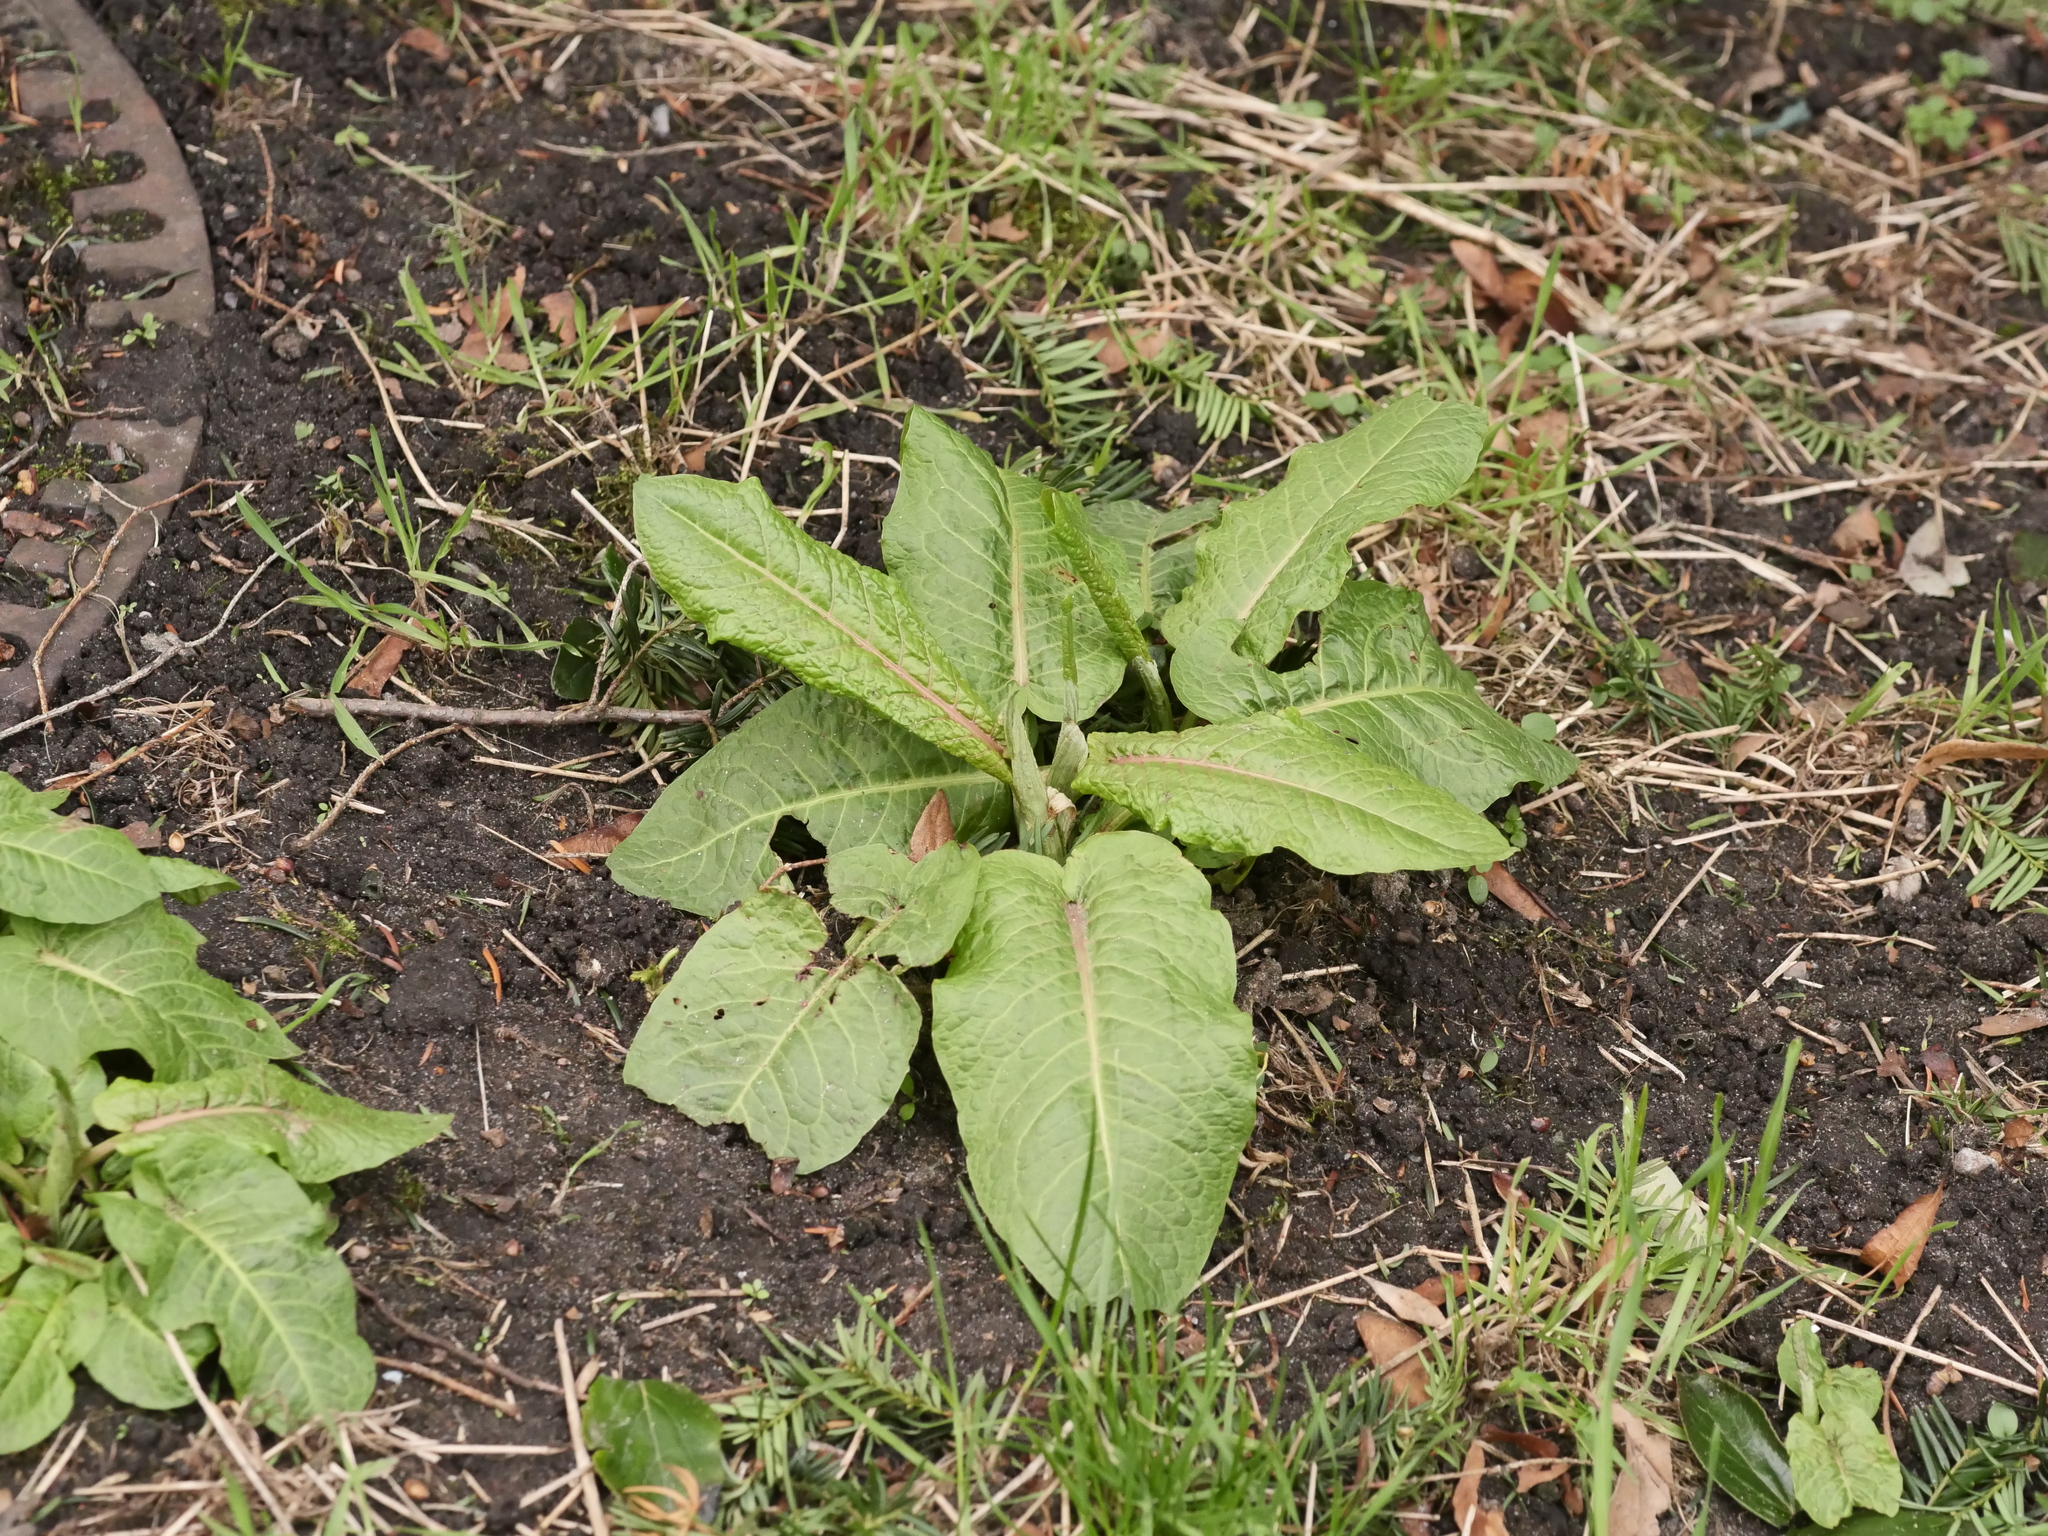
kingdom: Plantae
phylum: Tracheophyta
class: Magnoliopsida
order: Caryophyllales
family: Polygonaceae
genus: Rumex
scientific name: Rumex obtusifolius
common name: Bitter dock
